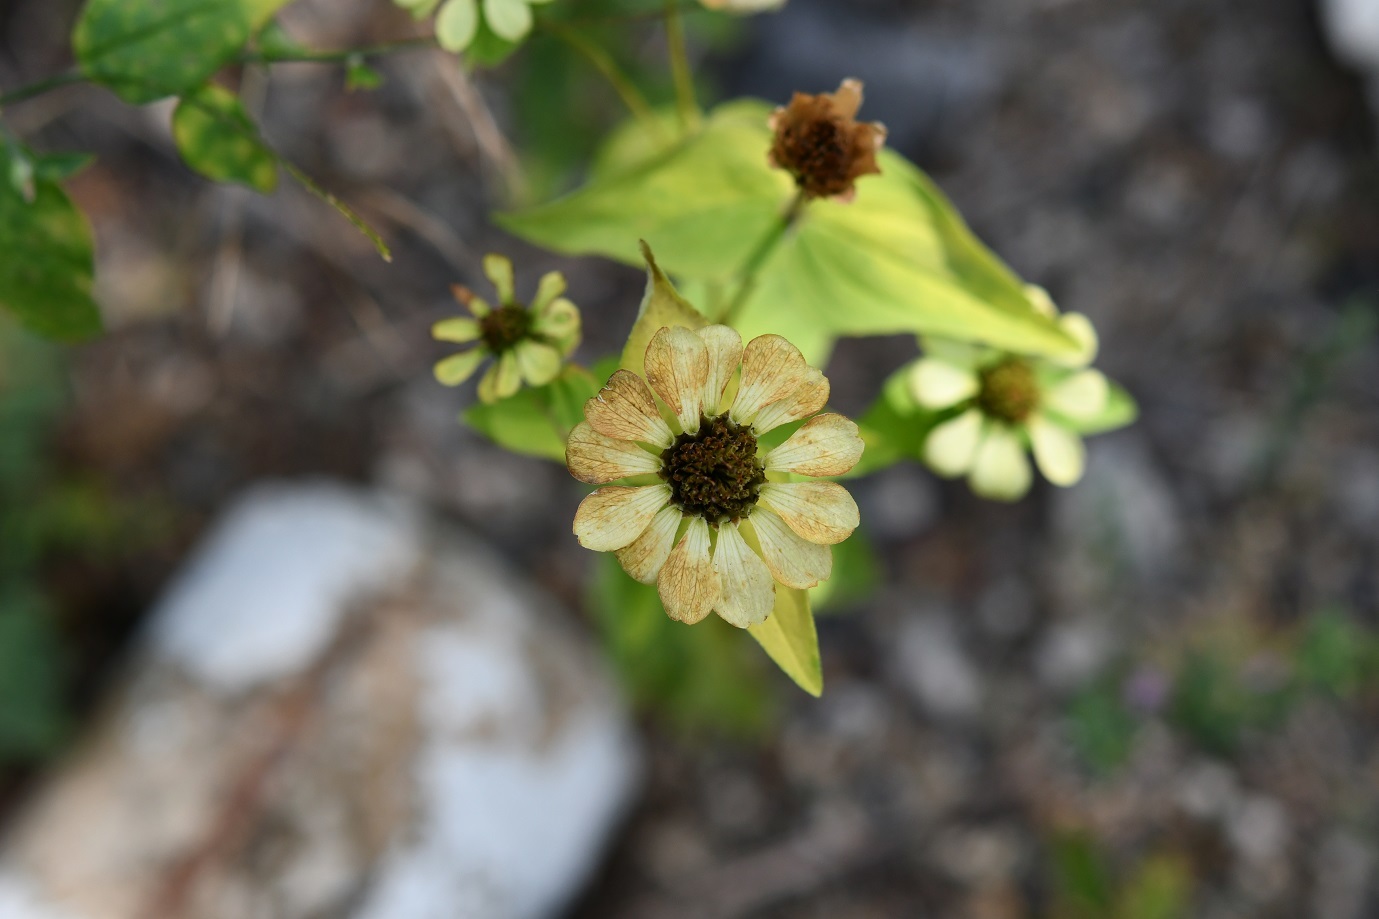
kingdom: Plantae
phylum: Tracheophyta
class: Magnoliopsida
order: Asterales
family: Asteraceae
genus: Zinnia
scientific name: Zinnia peruviana
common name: Peruvian zinnia
